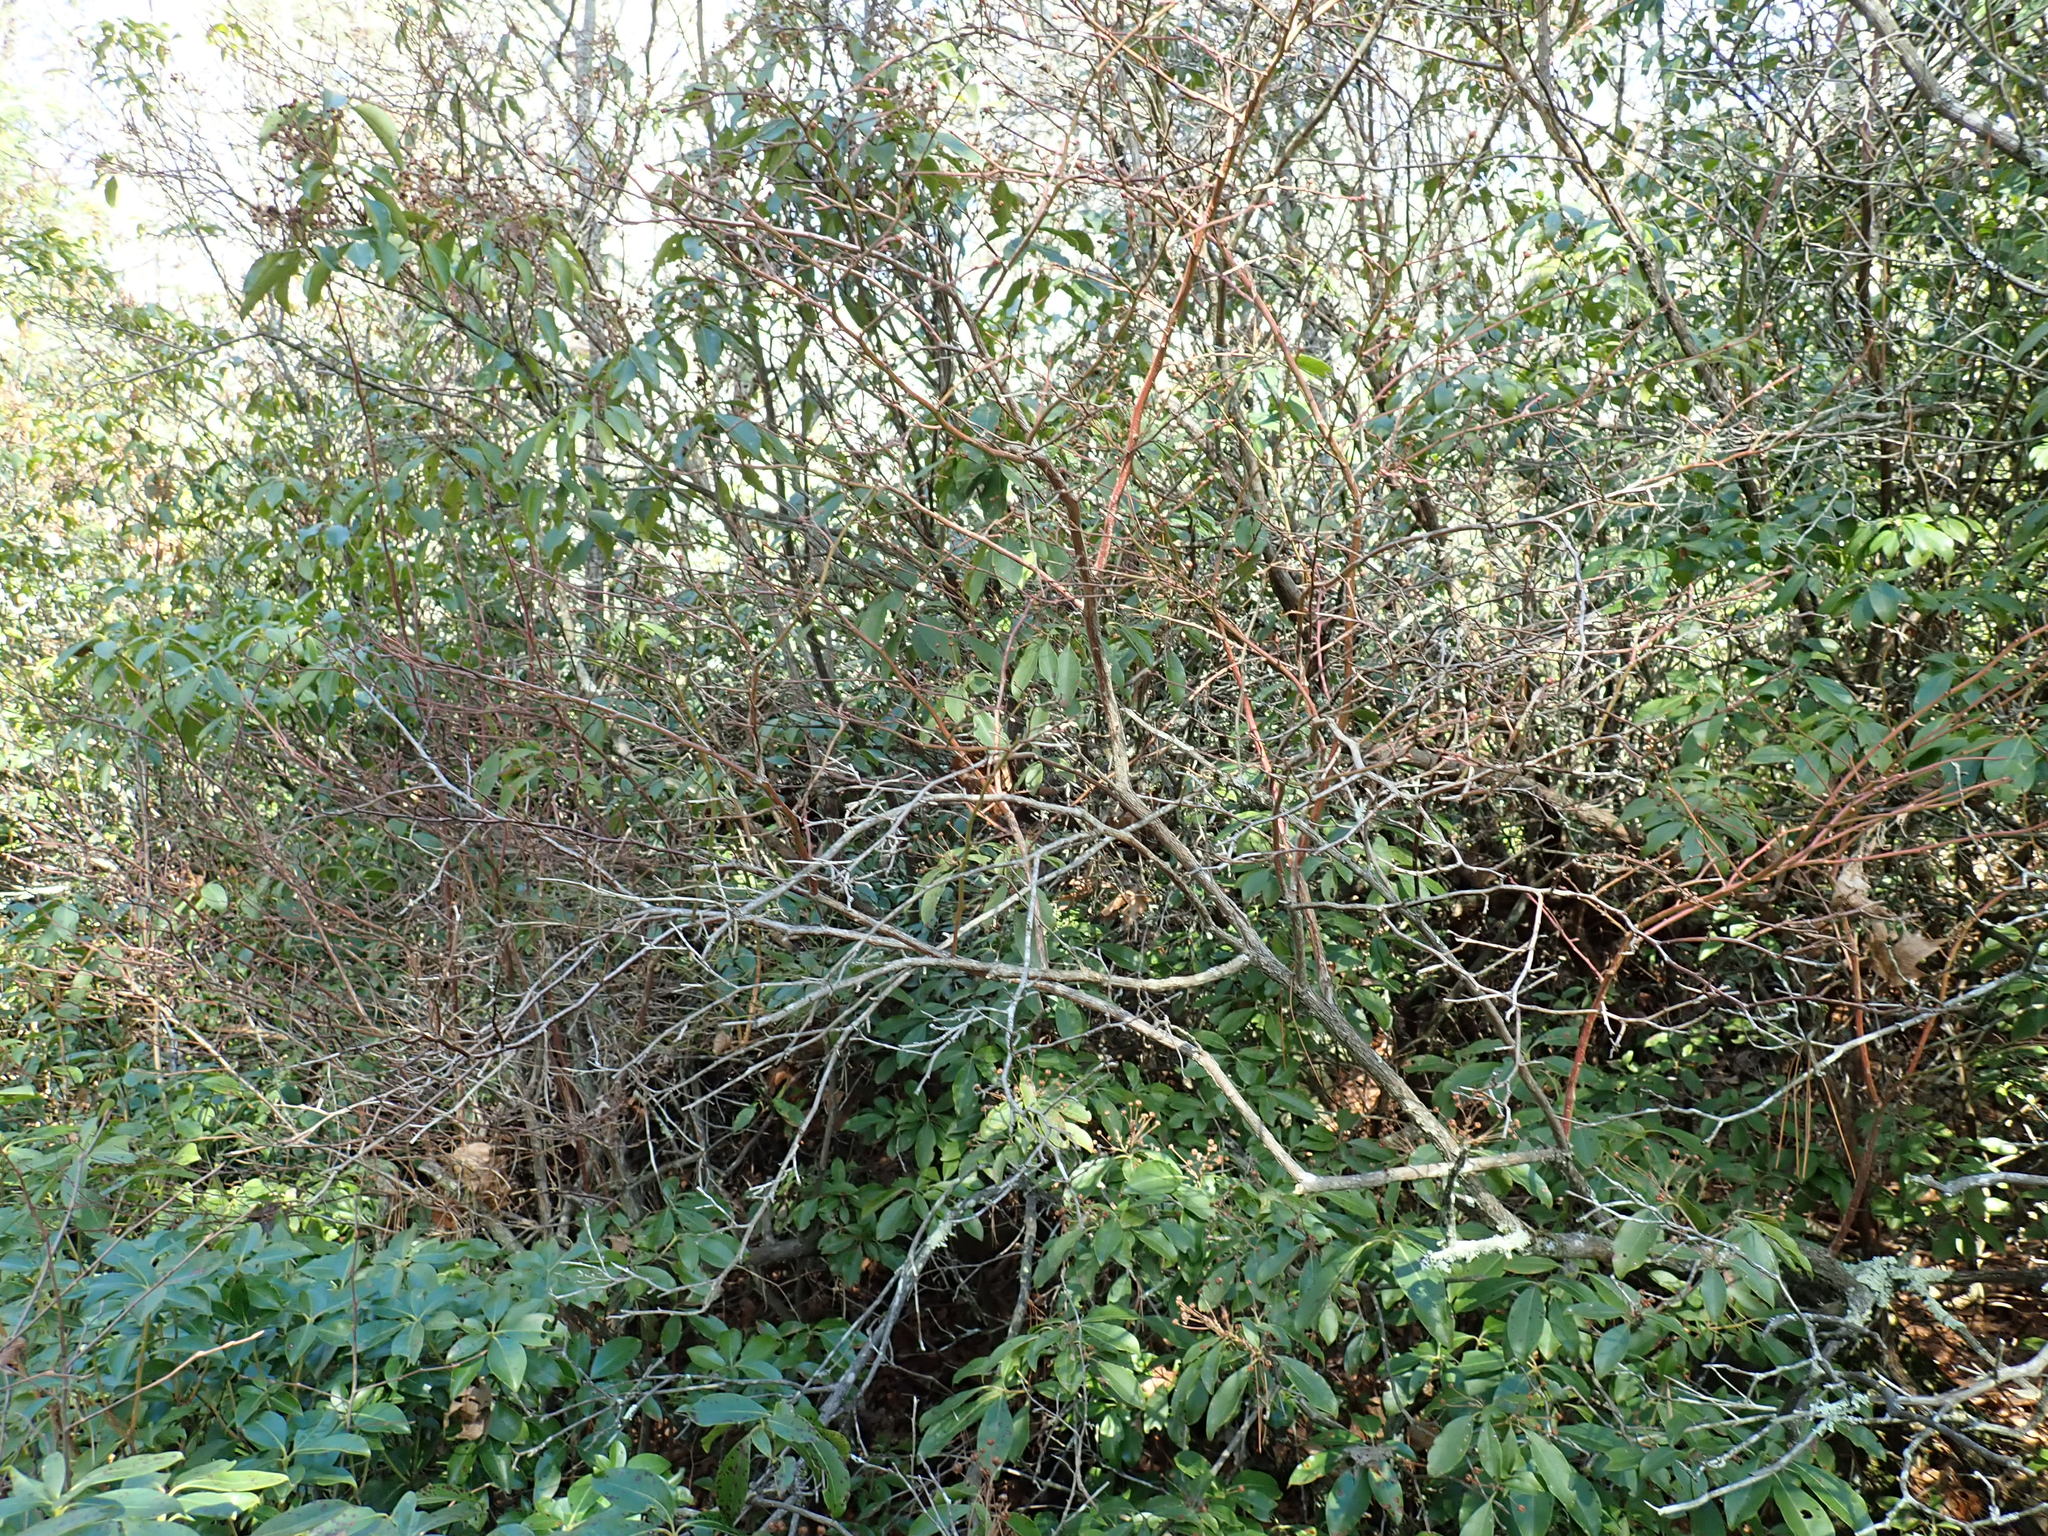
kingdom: Plantae
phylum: Tracheophyta
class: Magnoliopsida
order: Ericales
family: Ericaceae
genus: Vaccinium
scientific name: Vaccinium corymbosum
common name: Blueberry
